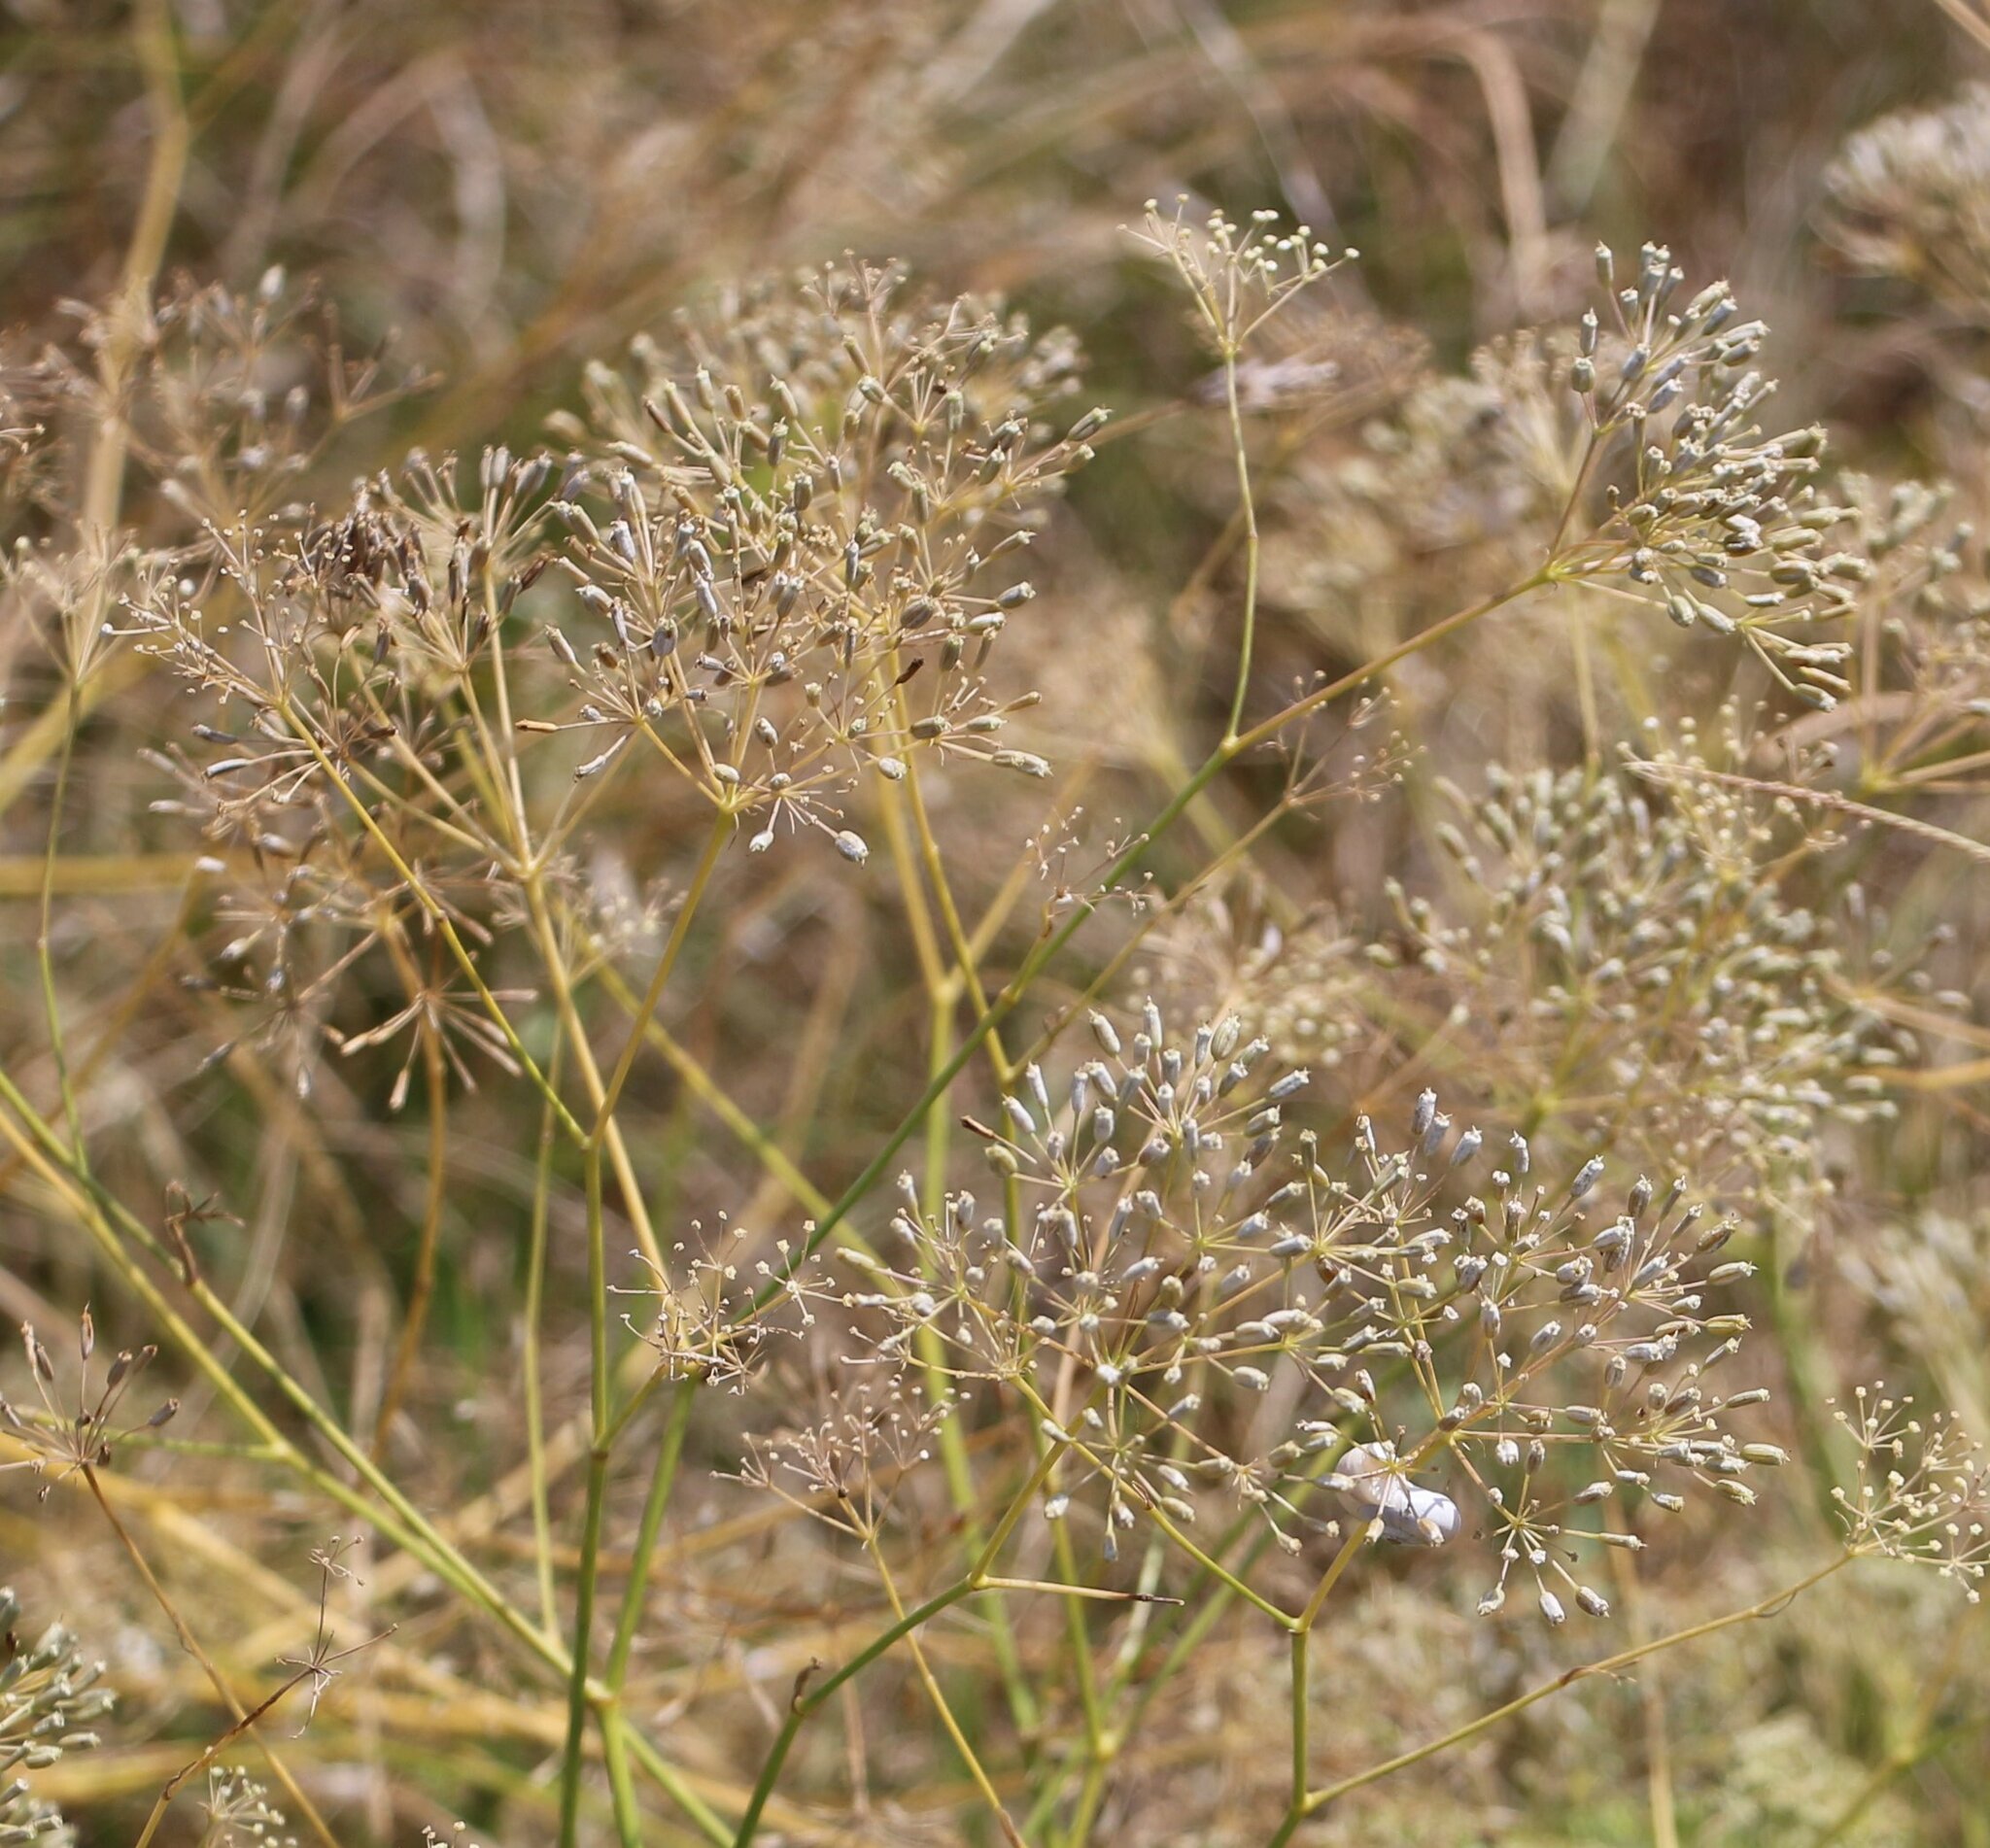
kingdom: Plantae
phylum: Tracheophyta
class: Magnoliopsida
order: Apiales
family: Apiaceae
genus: Falcaria
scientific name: Falcaria vulgaris
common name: Longleaf
